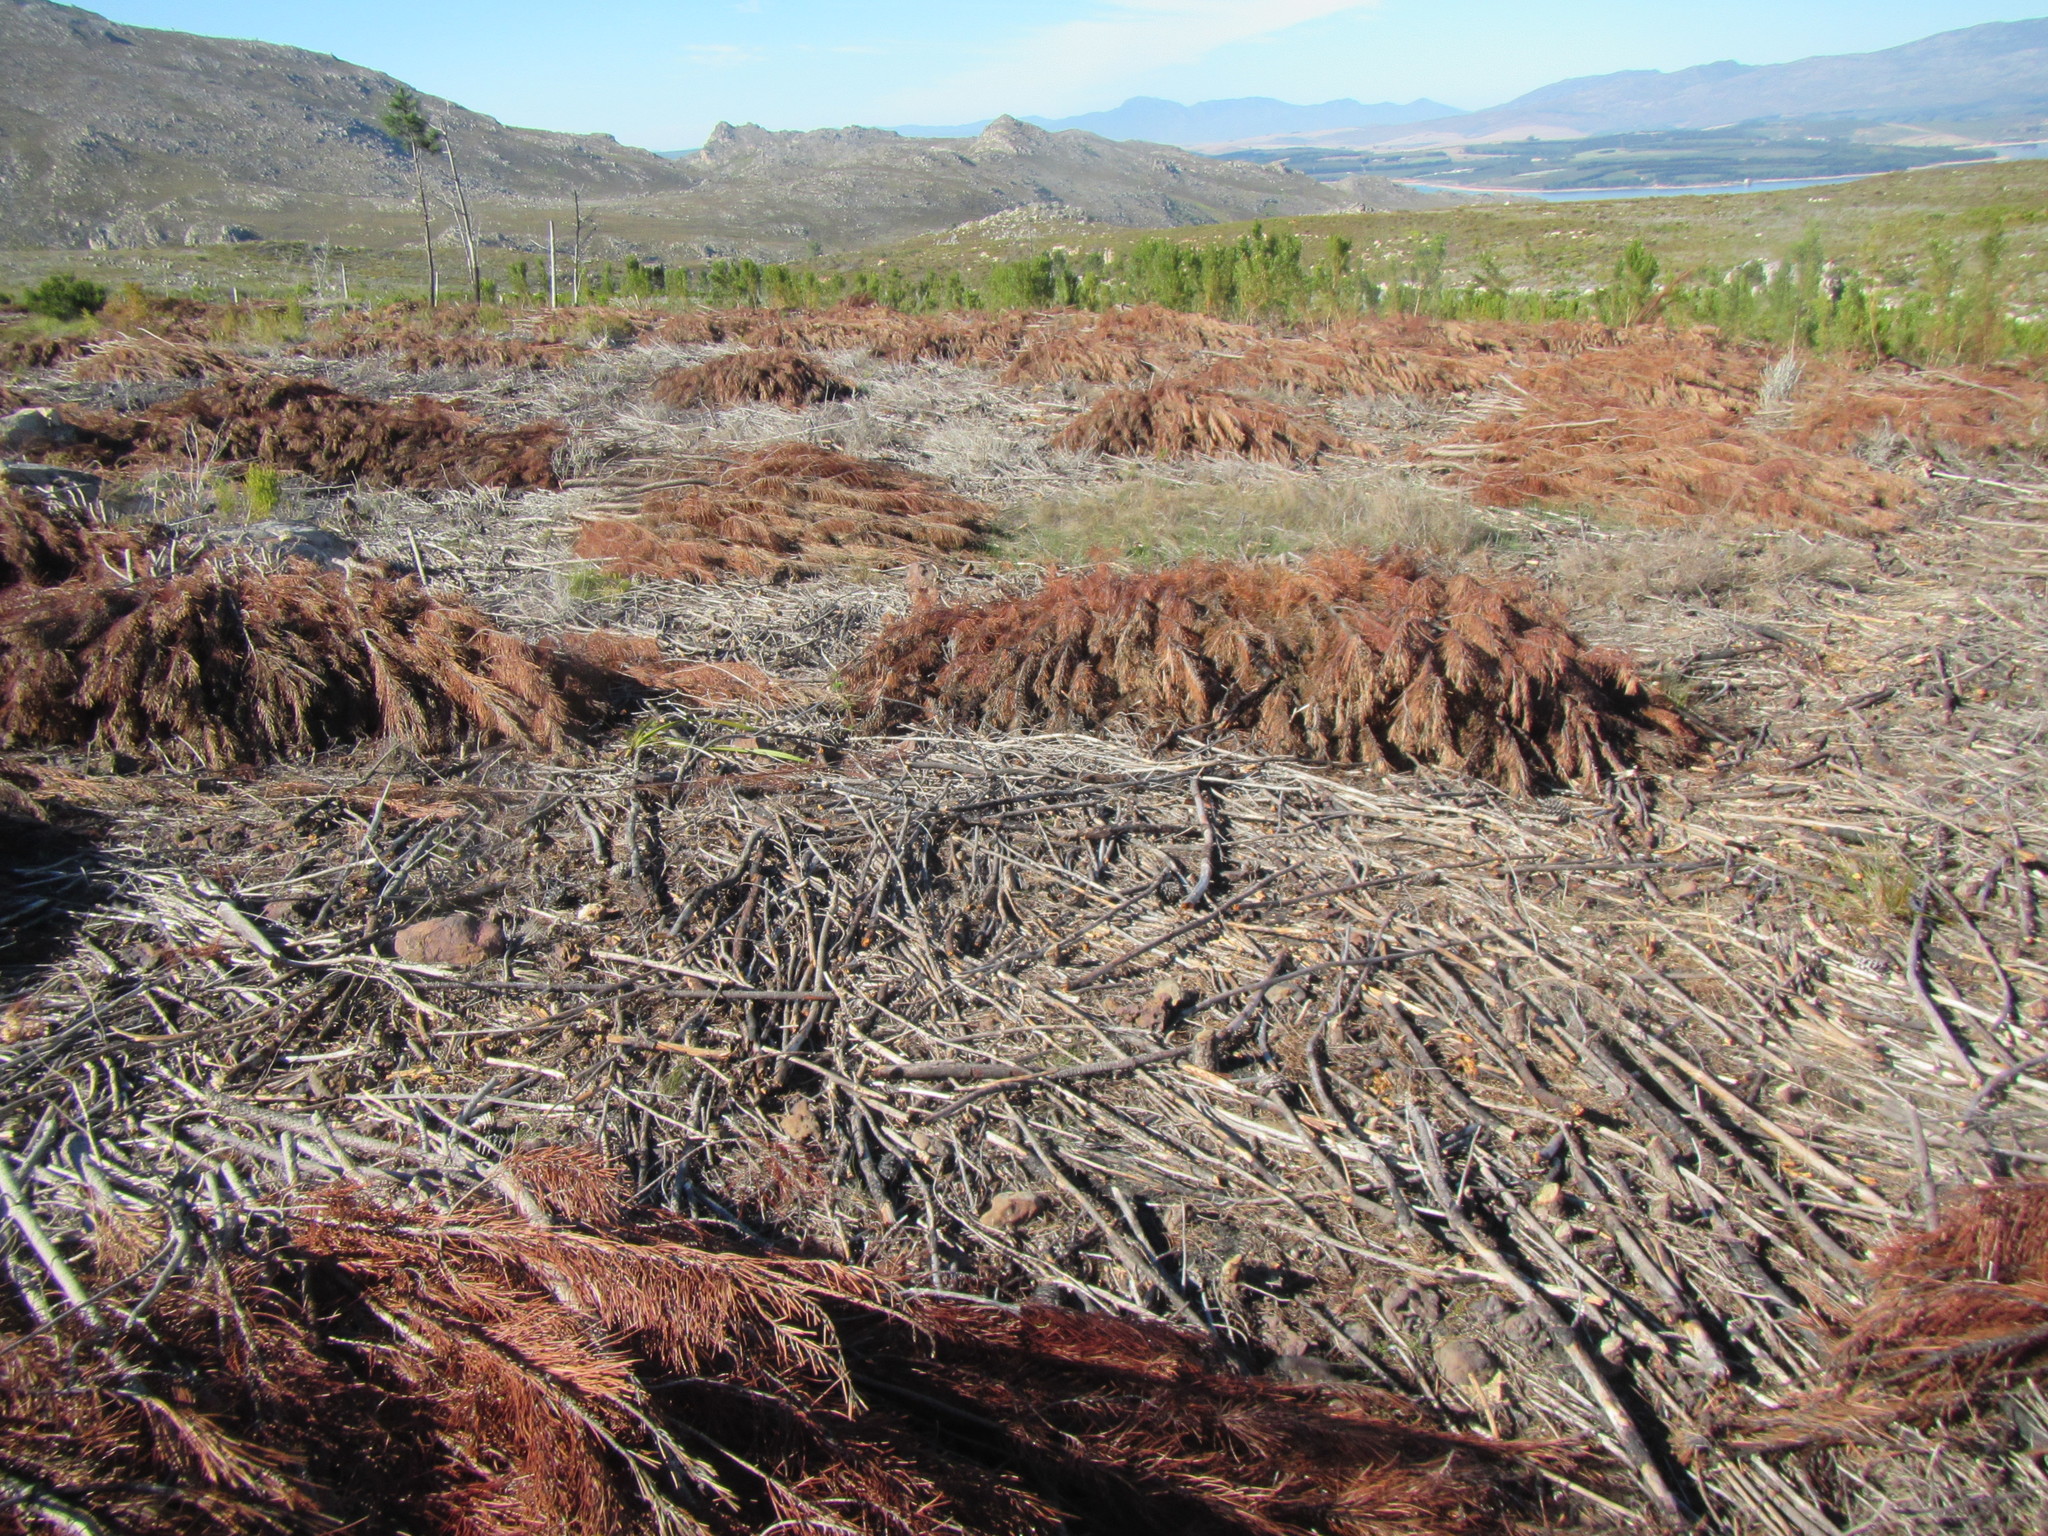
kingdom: Plantae
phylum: Tracheophyta
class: Pinopsida
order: Pinales
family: Pinaceae
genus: Pinus
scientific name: Pinus pinaster
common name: Maritime pine
